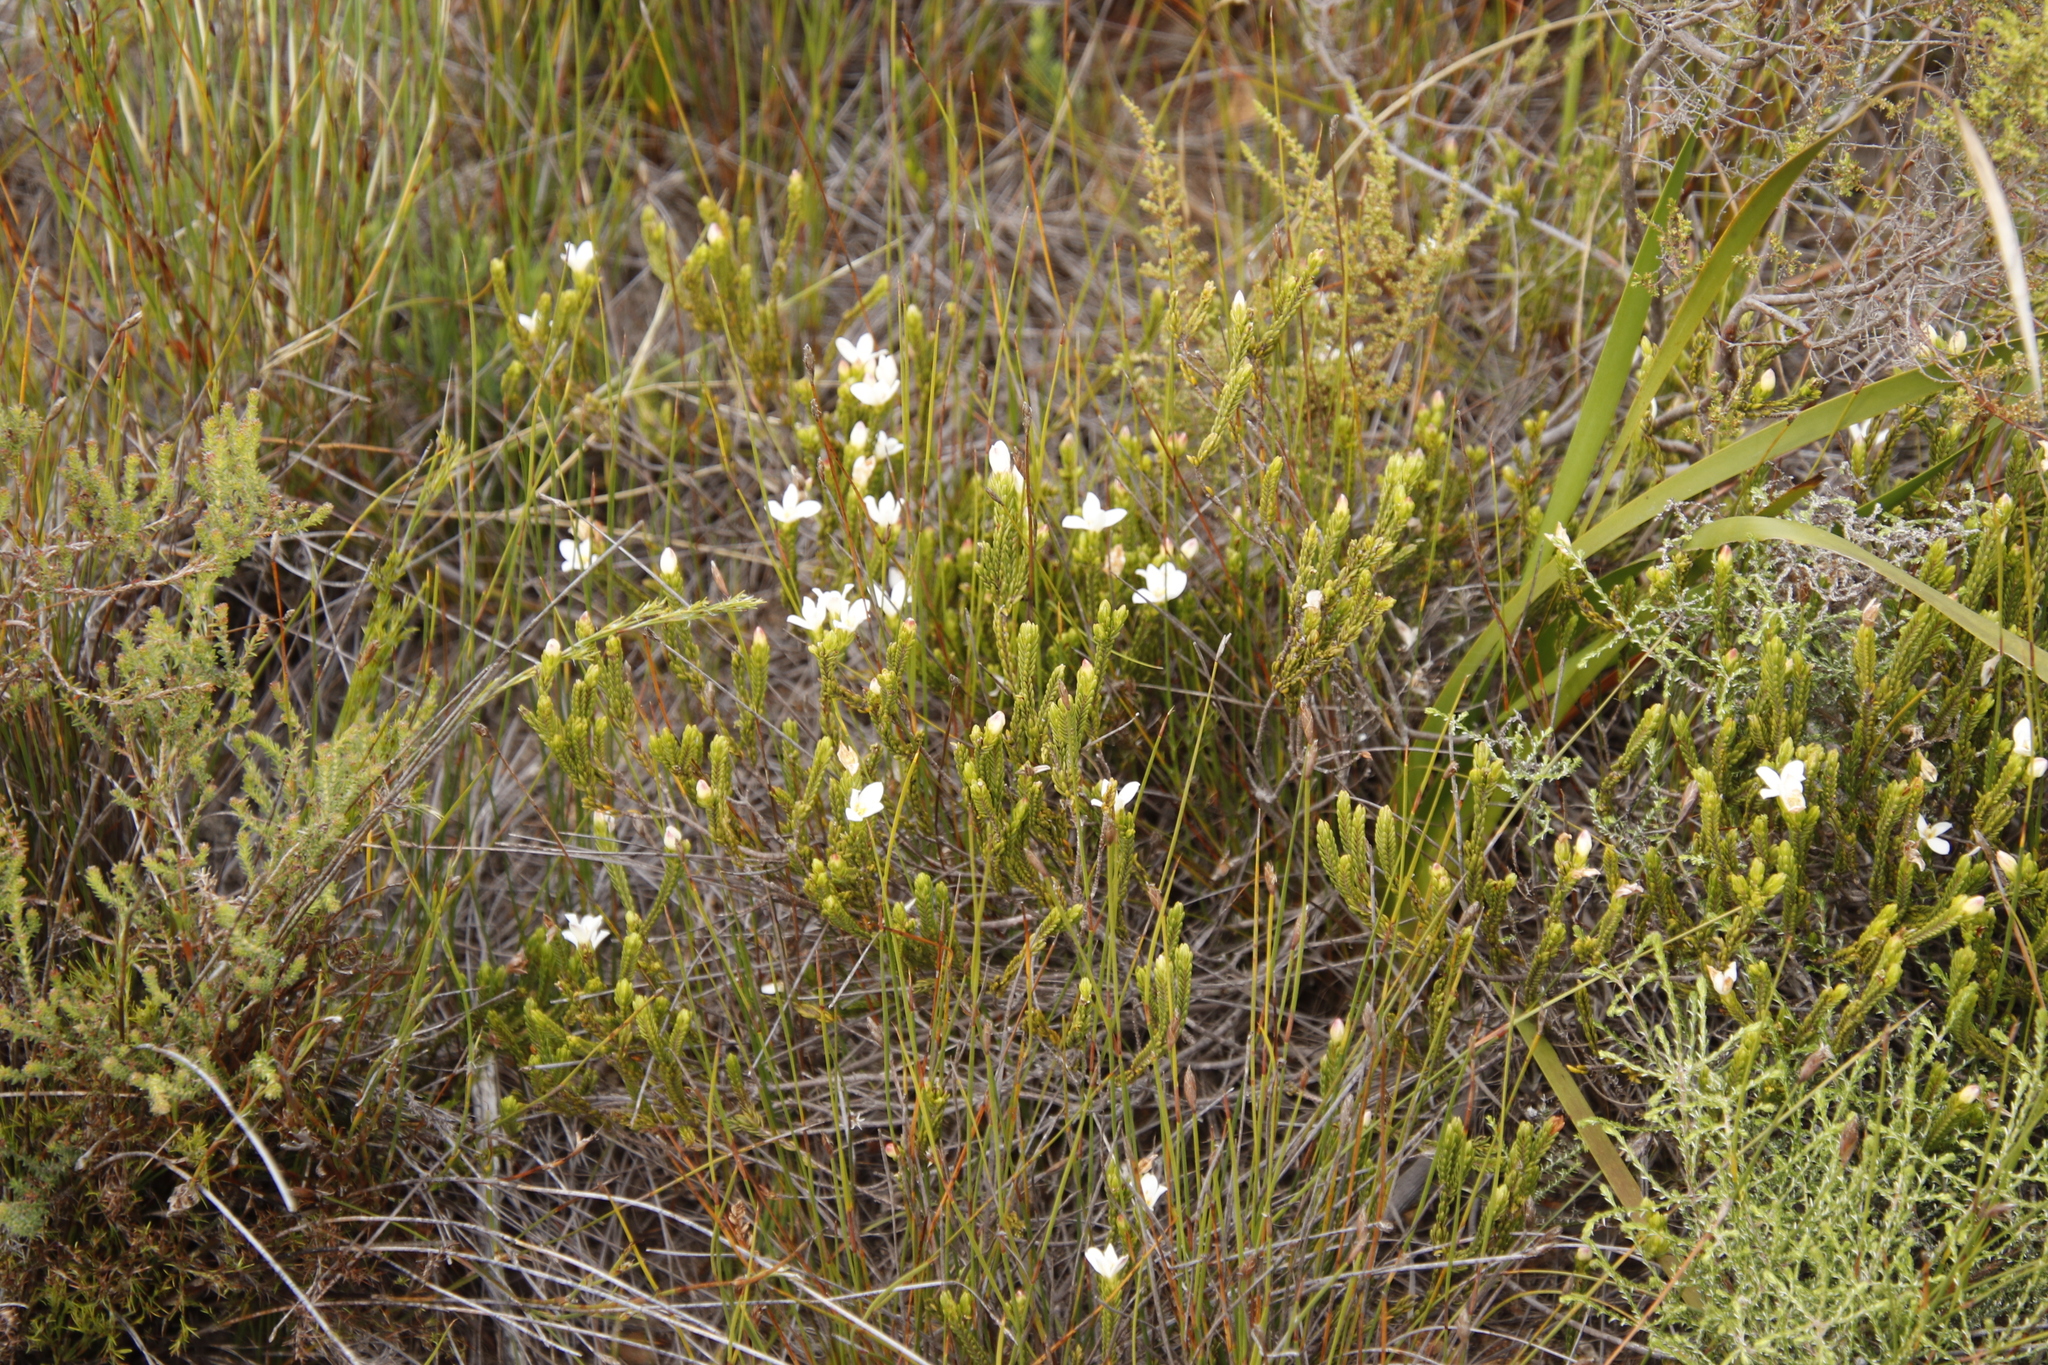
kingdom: Plantae
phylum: Tracheophyta
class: Magnoliopsida
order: Malvales
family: Thymelaeaceae
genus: Lachnaea
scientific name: Lachnaea grandiflora
